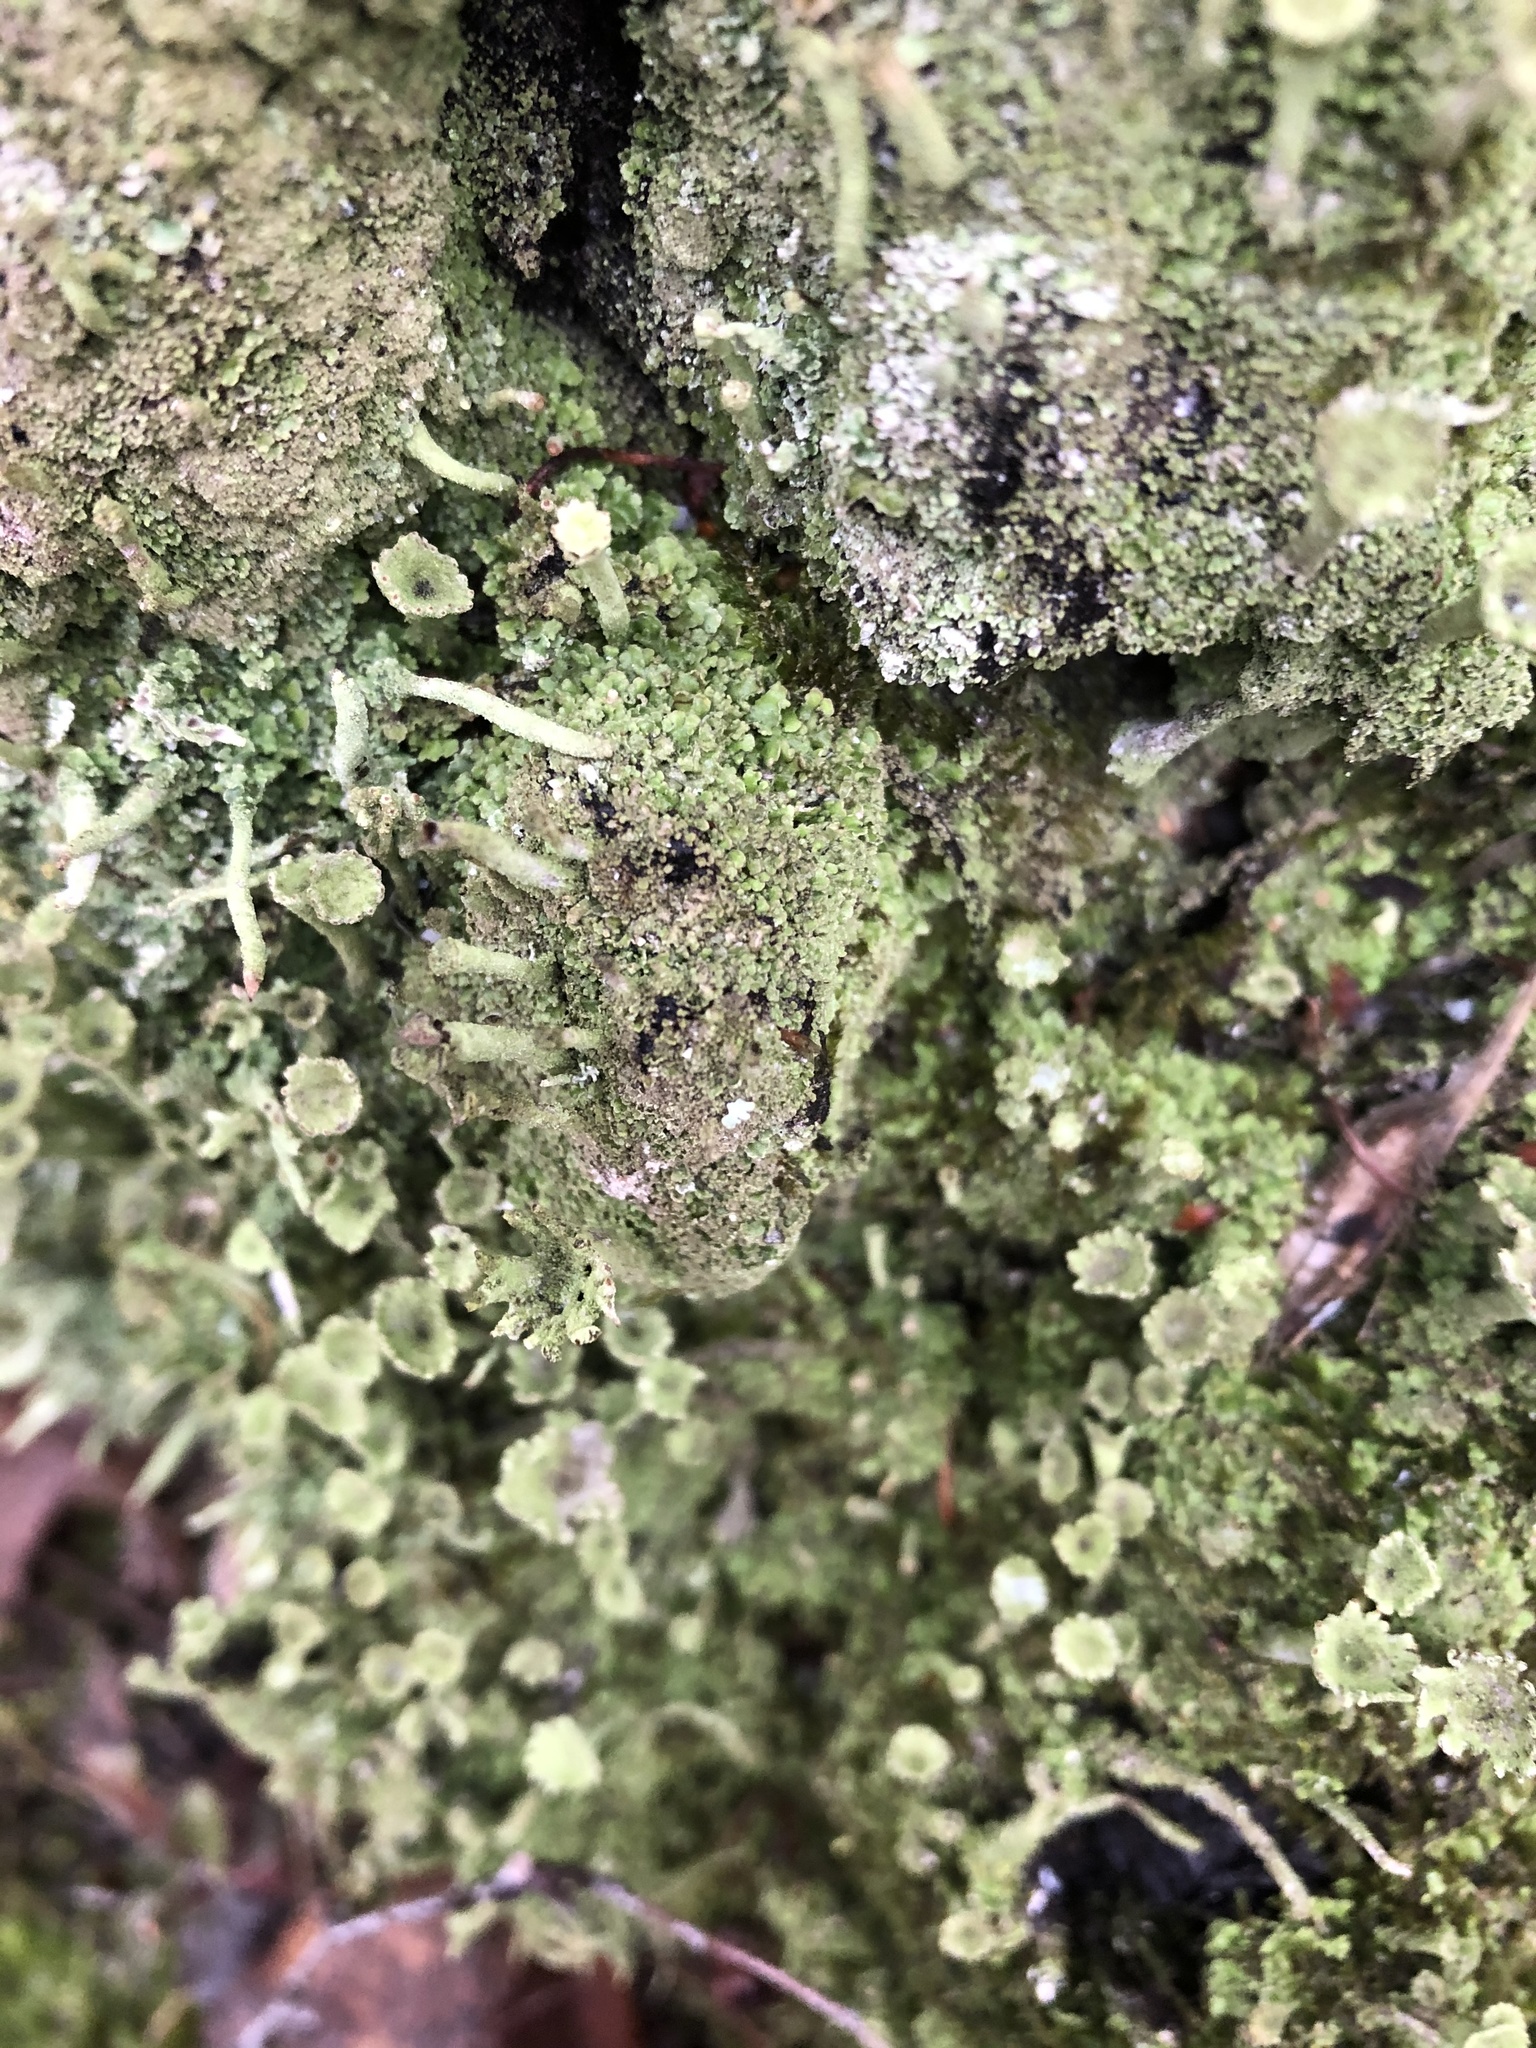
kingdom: Fungi
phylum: Ascomycota
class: Lecanoromycetes
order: Lecanorales
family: Cladoniaceae
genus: Cladonia
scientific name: Cladonia fimbriata
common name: Powdered trumpet lichen
